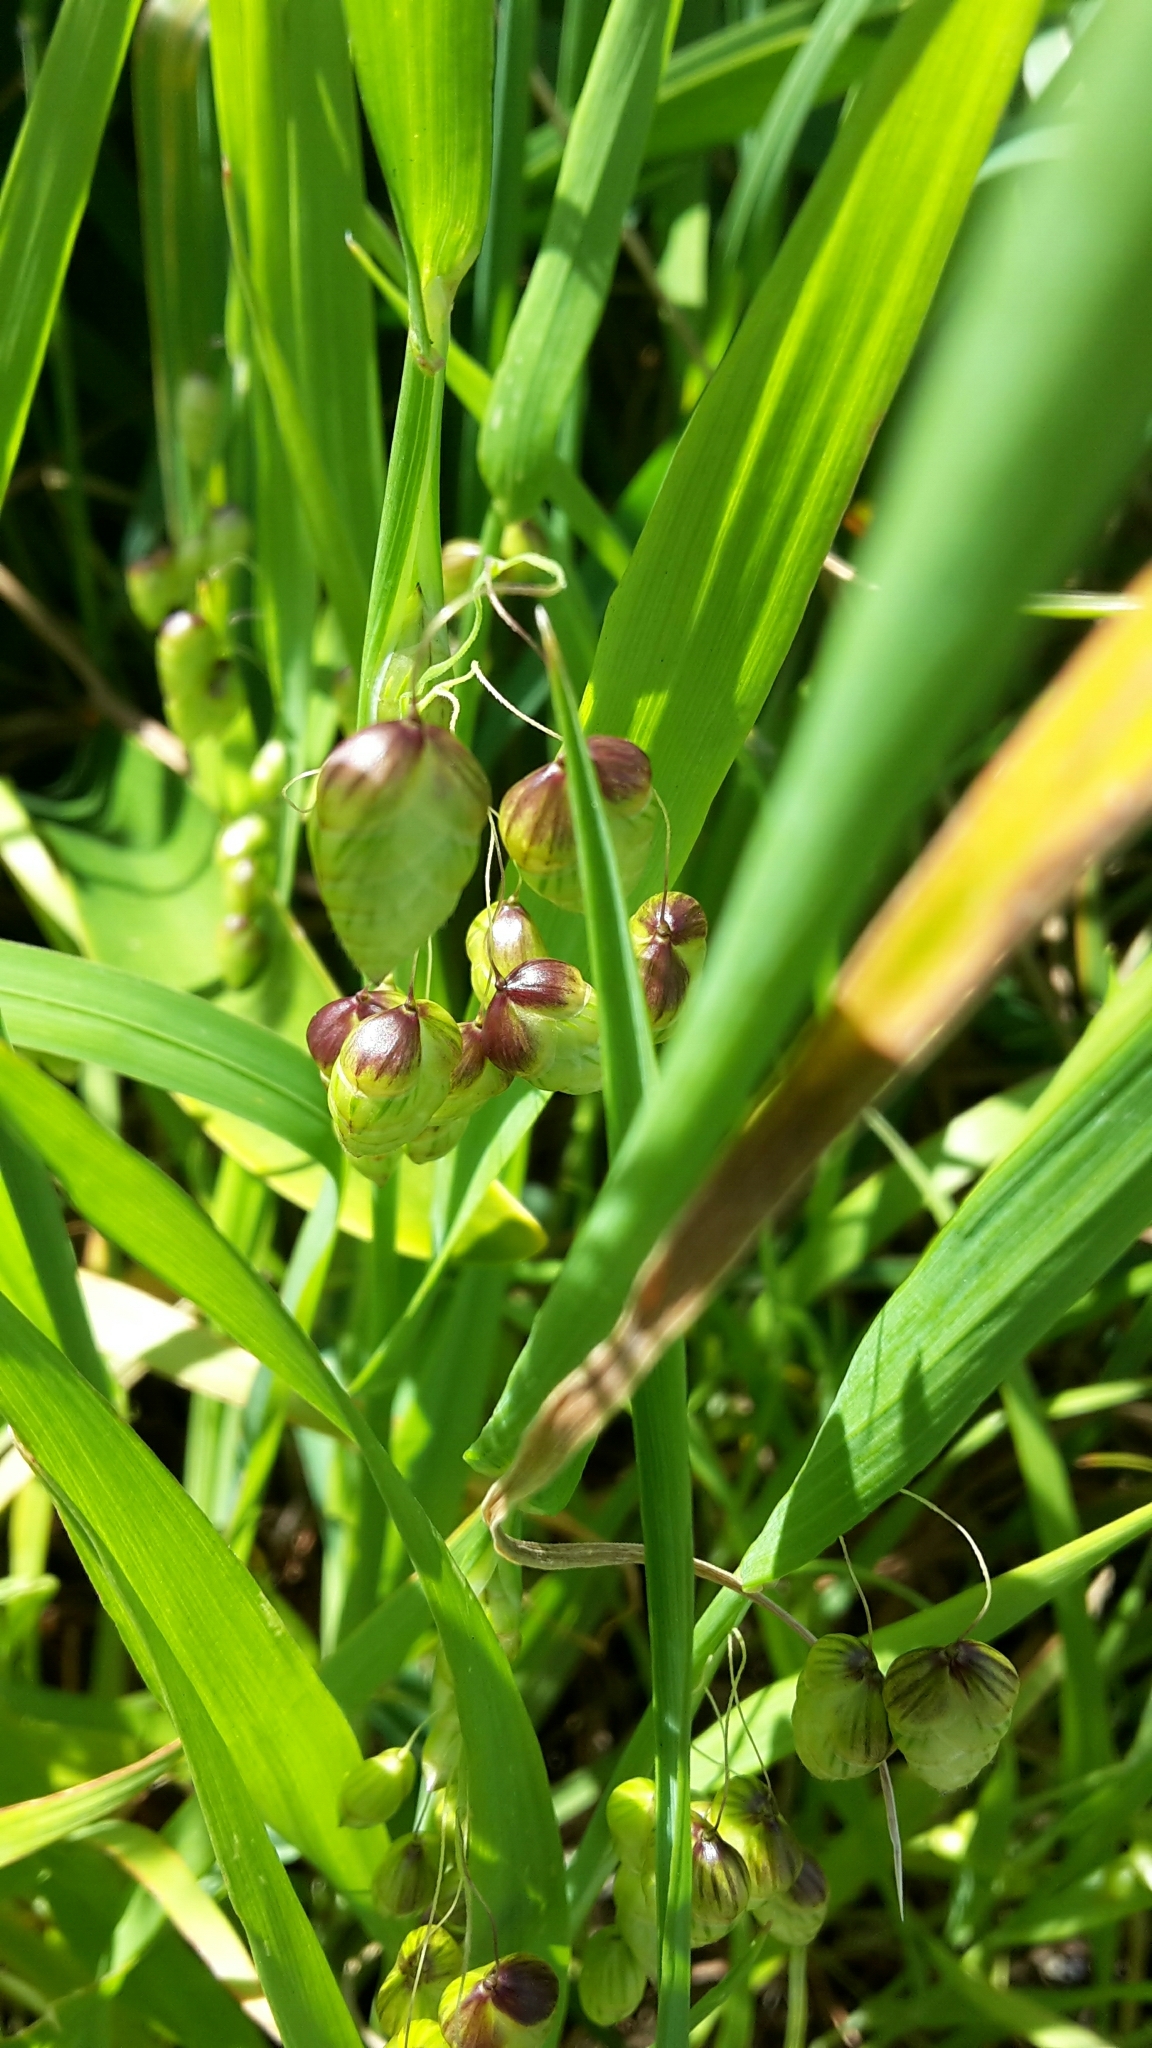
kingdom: Plantae
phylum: Tracheophyta
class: Liliopsida
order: Poales
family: Poaceae
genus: Briza
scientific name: Briza maxima
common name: Big quakinggrass
